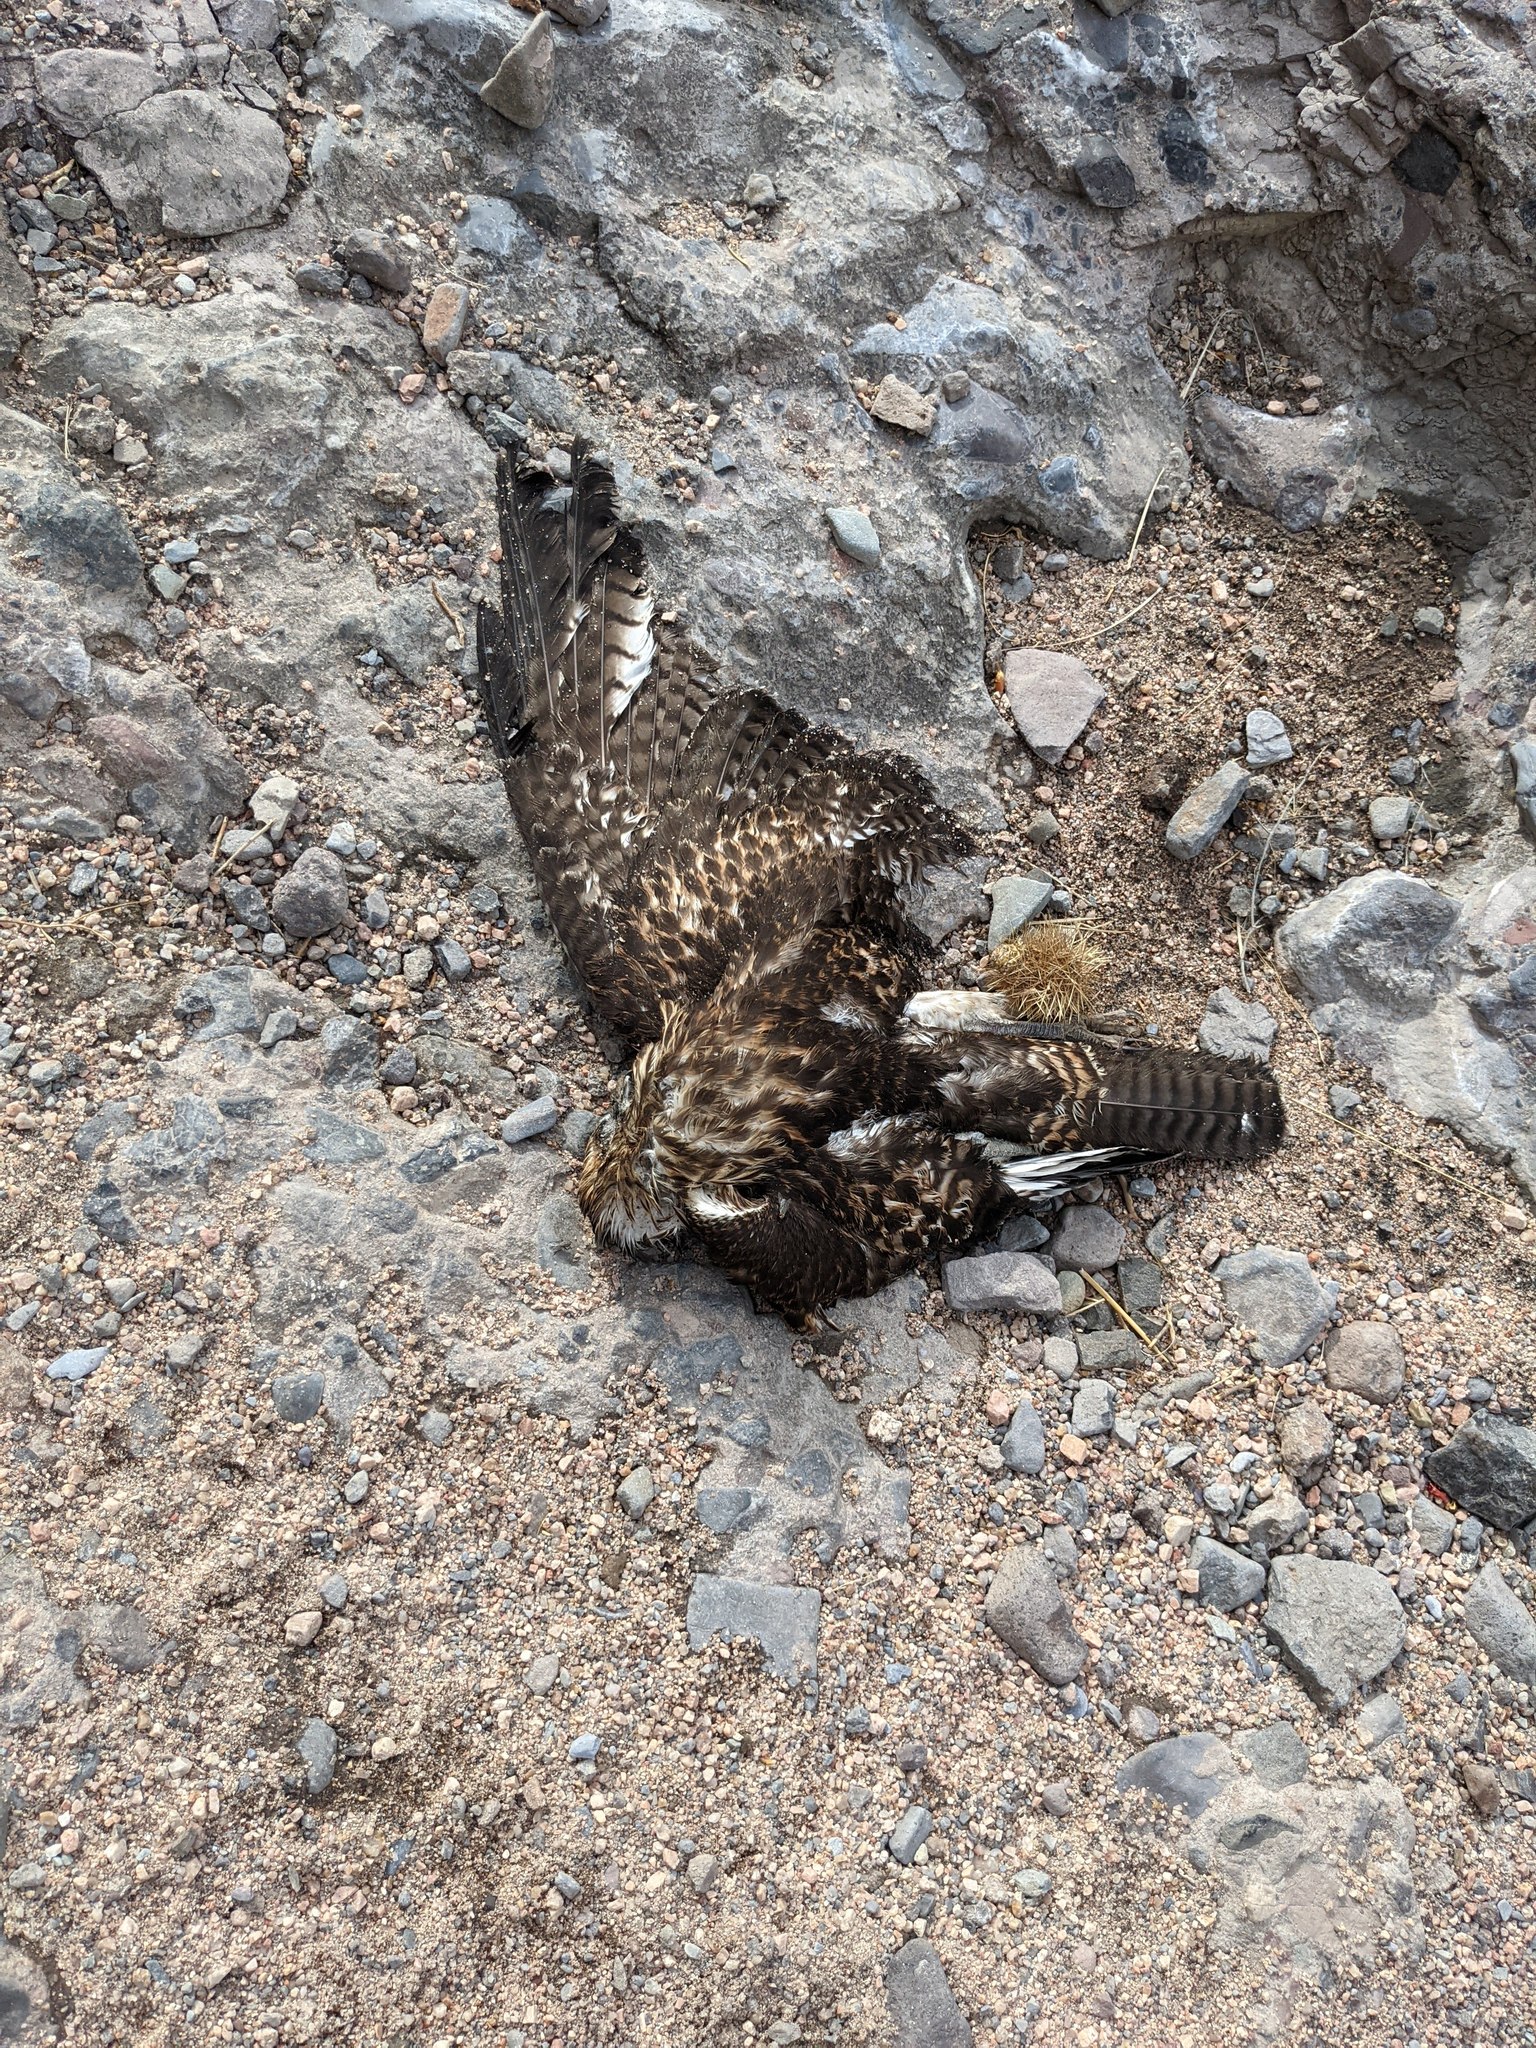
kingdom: Animalia
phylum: Chordata
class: Aves
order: Accipitriformes
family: Accipitridae
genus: Buteo
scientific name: Buteo jamaicensis
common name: Red-tailed hawk
